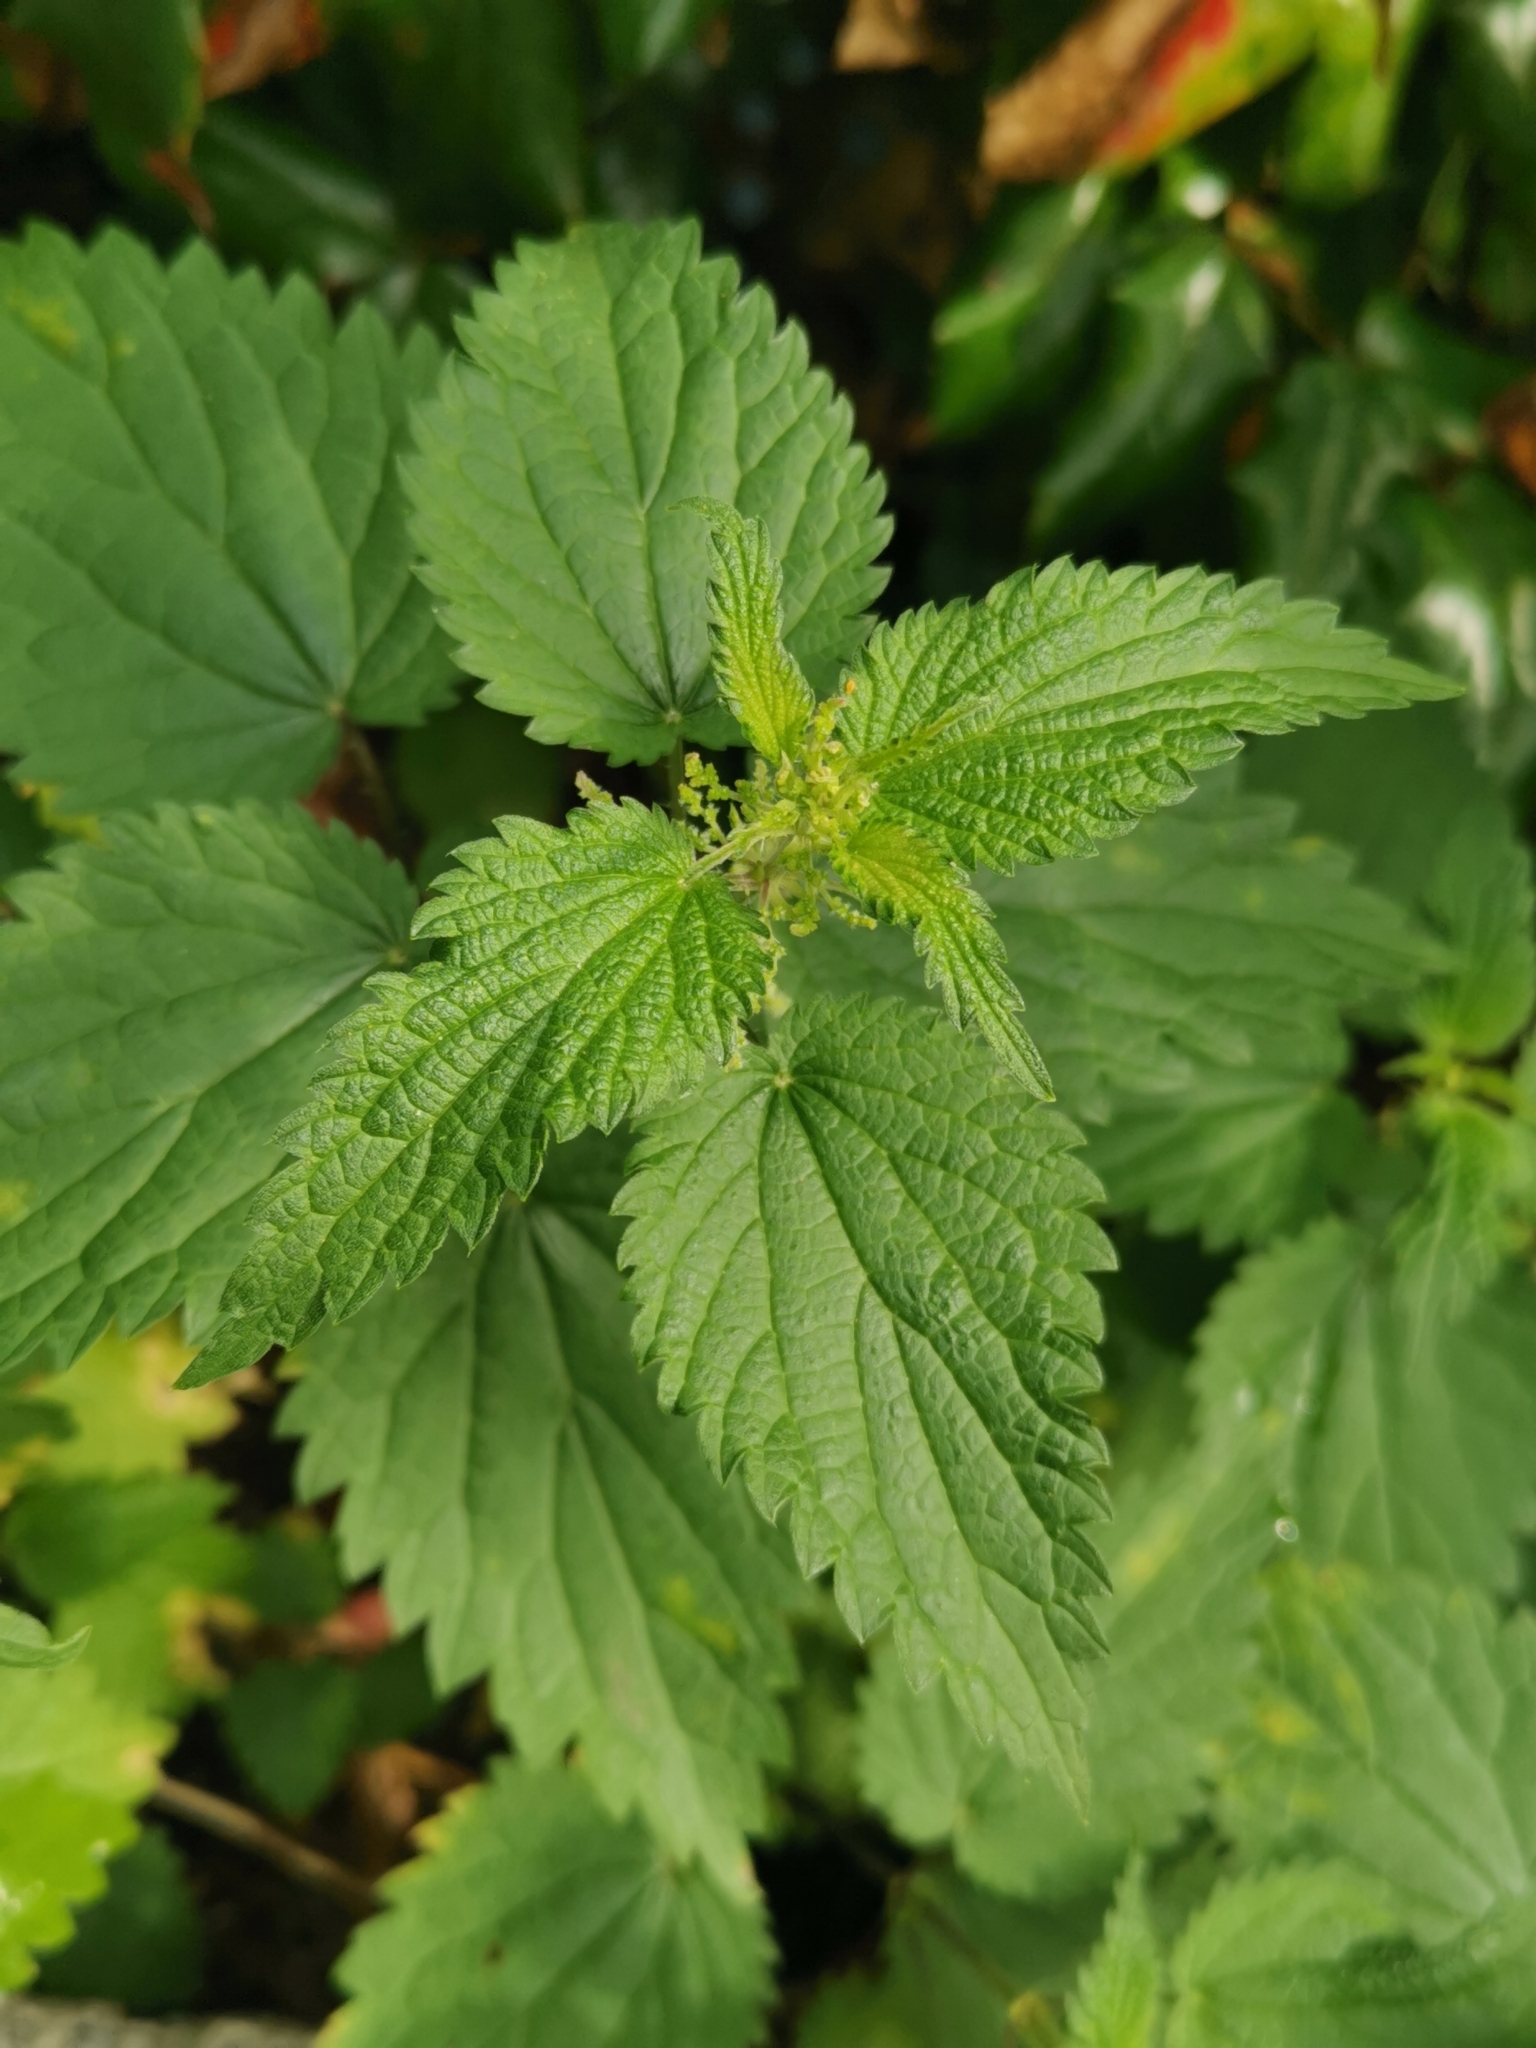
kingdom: Plantae
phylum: Tracheophyta
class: Magnoliopsida
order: Rosales
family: Urticaceae
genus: Urtica
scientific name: Urtica dioica
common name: Common nettle
